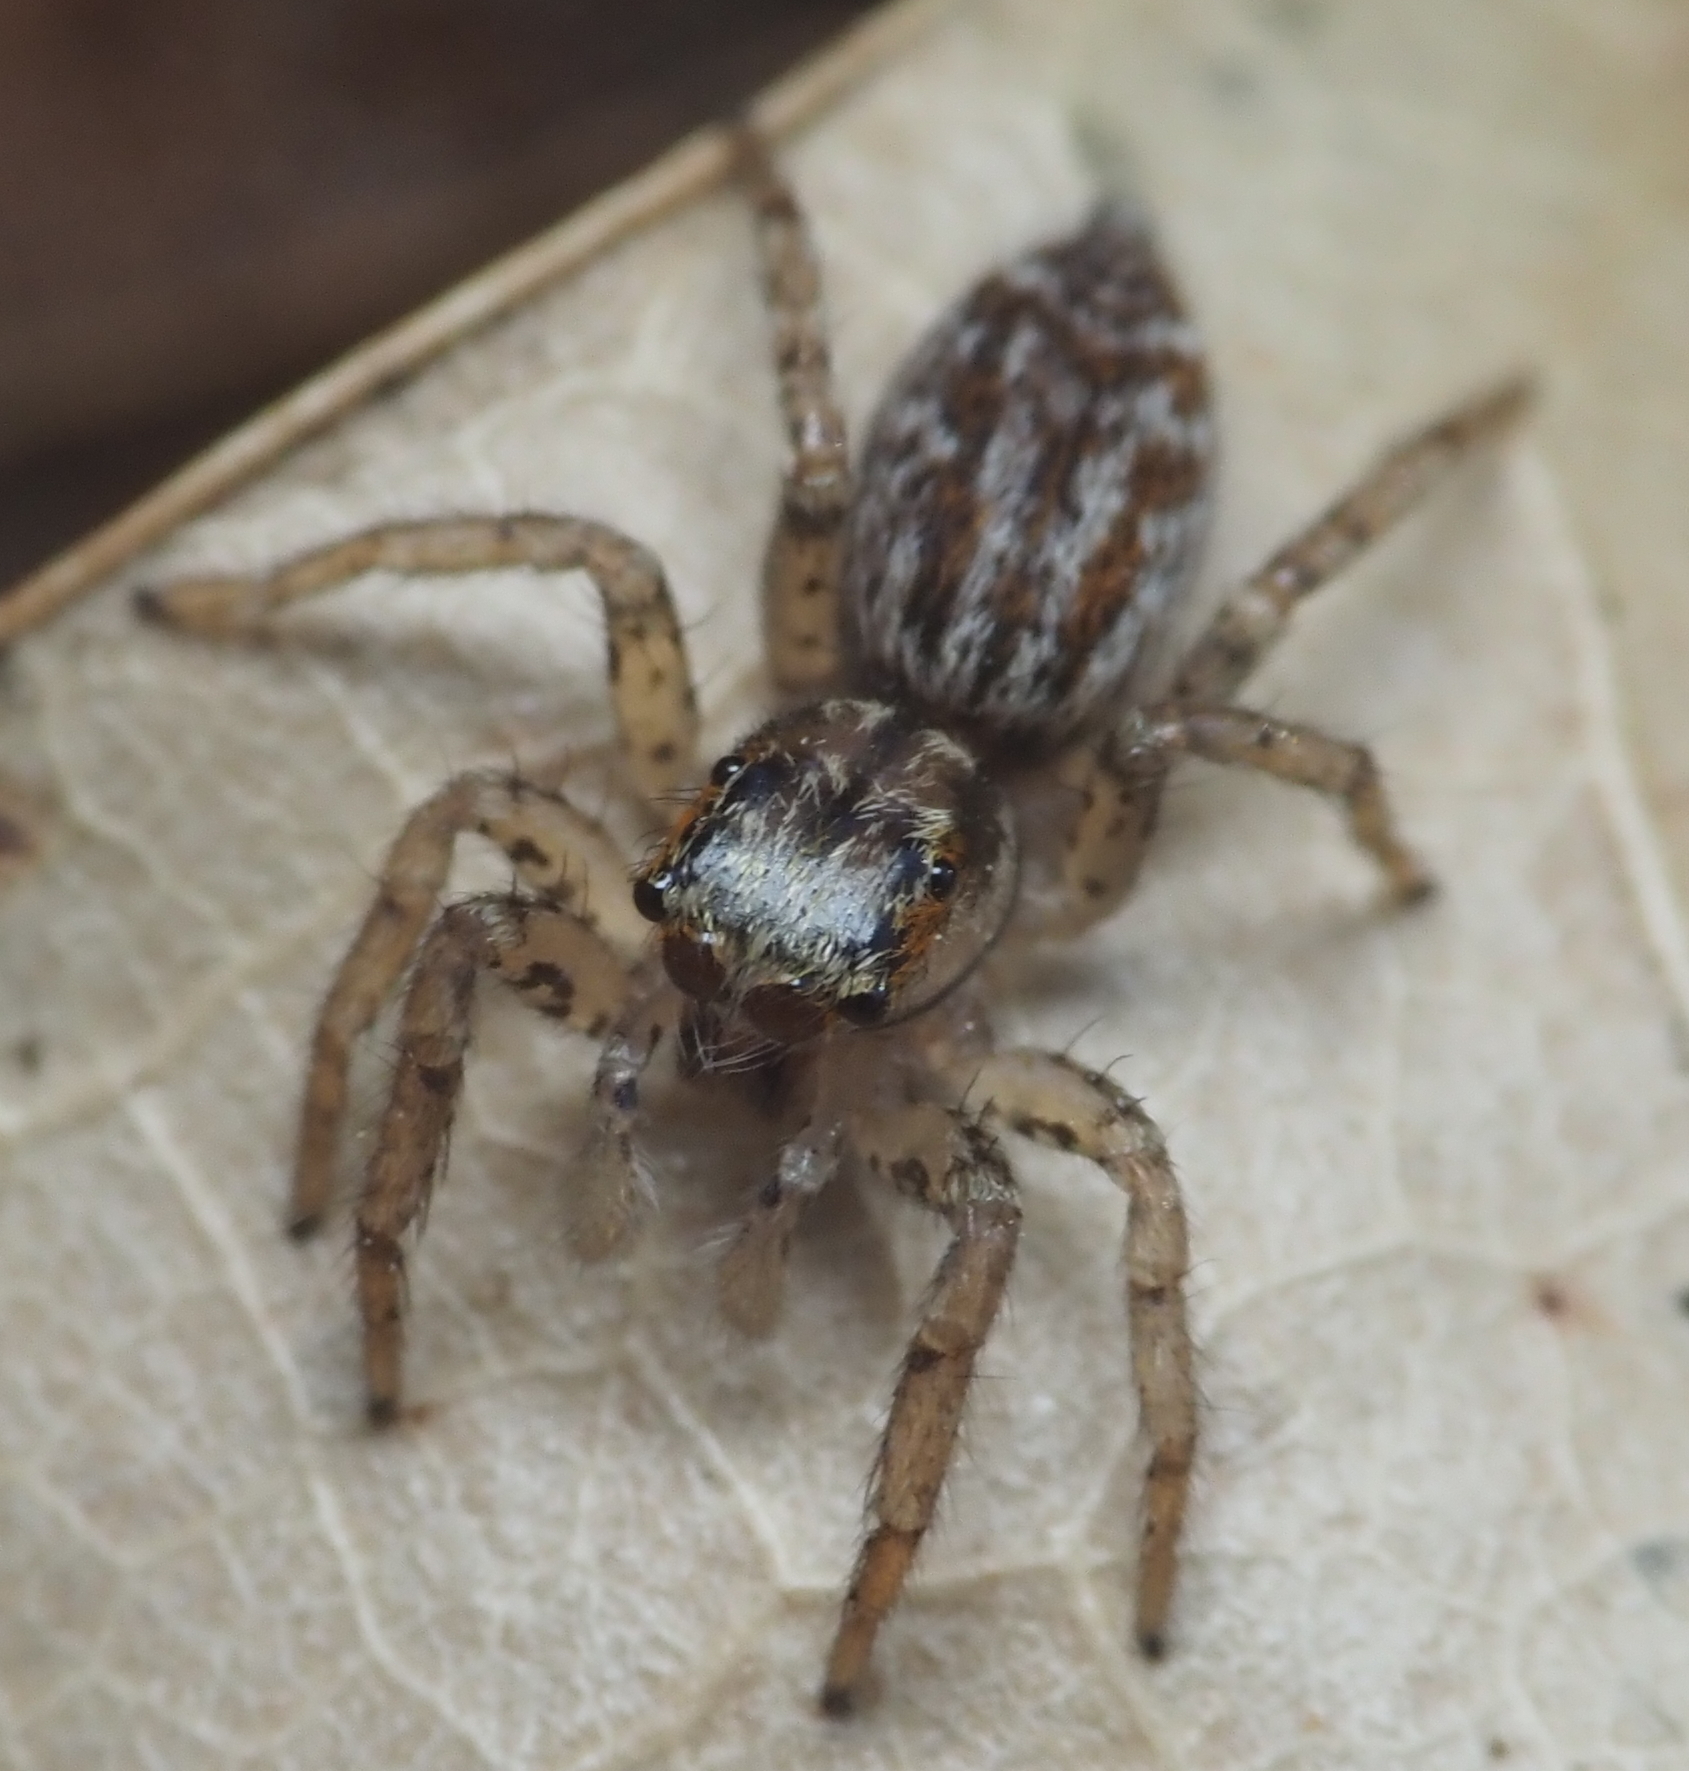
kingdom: Animalia
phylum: Arthropoda
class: Arachnida
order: Araneae
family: Salticidae
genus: Maevia
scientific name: Maevia inclemens
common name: Dimorphic jumper
